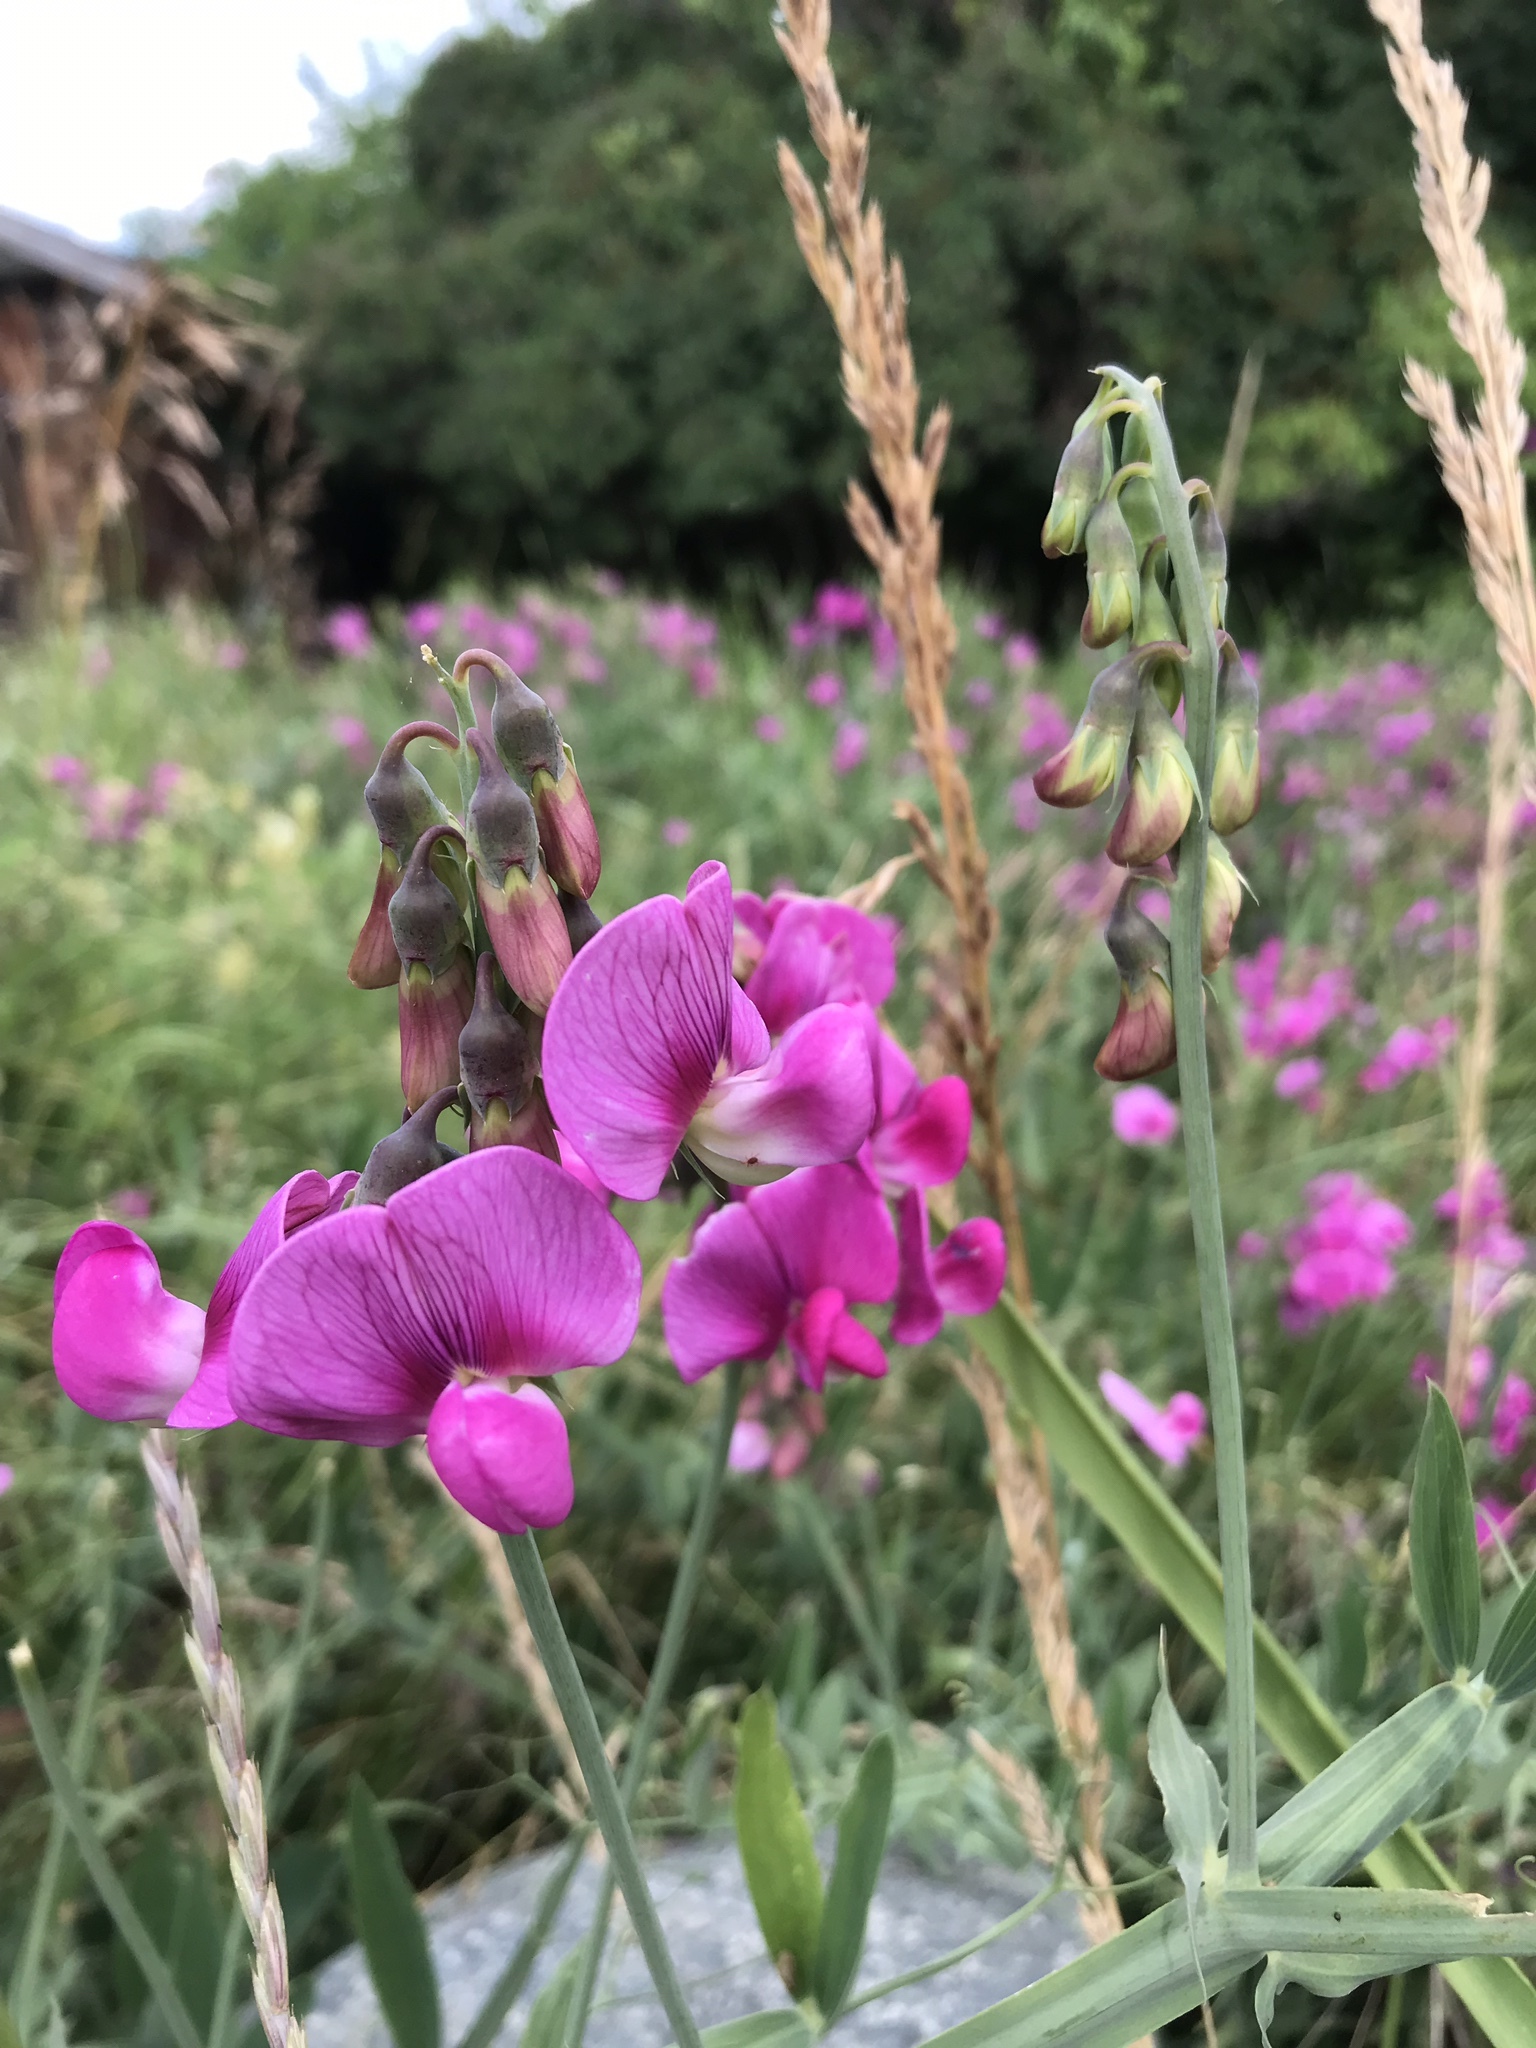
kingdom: Plantae
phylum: Tracheophyta
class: Magnoliopsida
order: Fabales
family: Fabaceae
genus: Lathyrus
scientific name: Lathyrus latifolius
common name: Perennial pea
